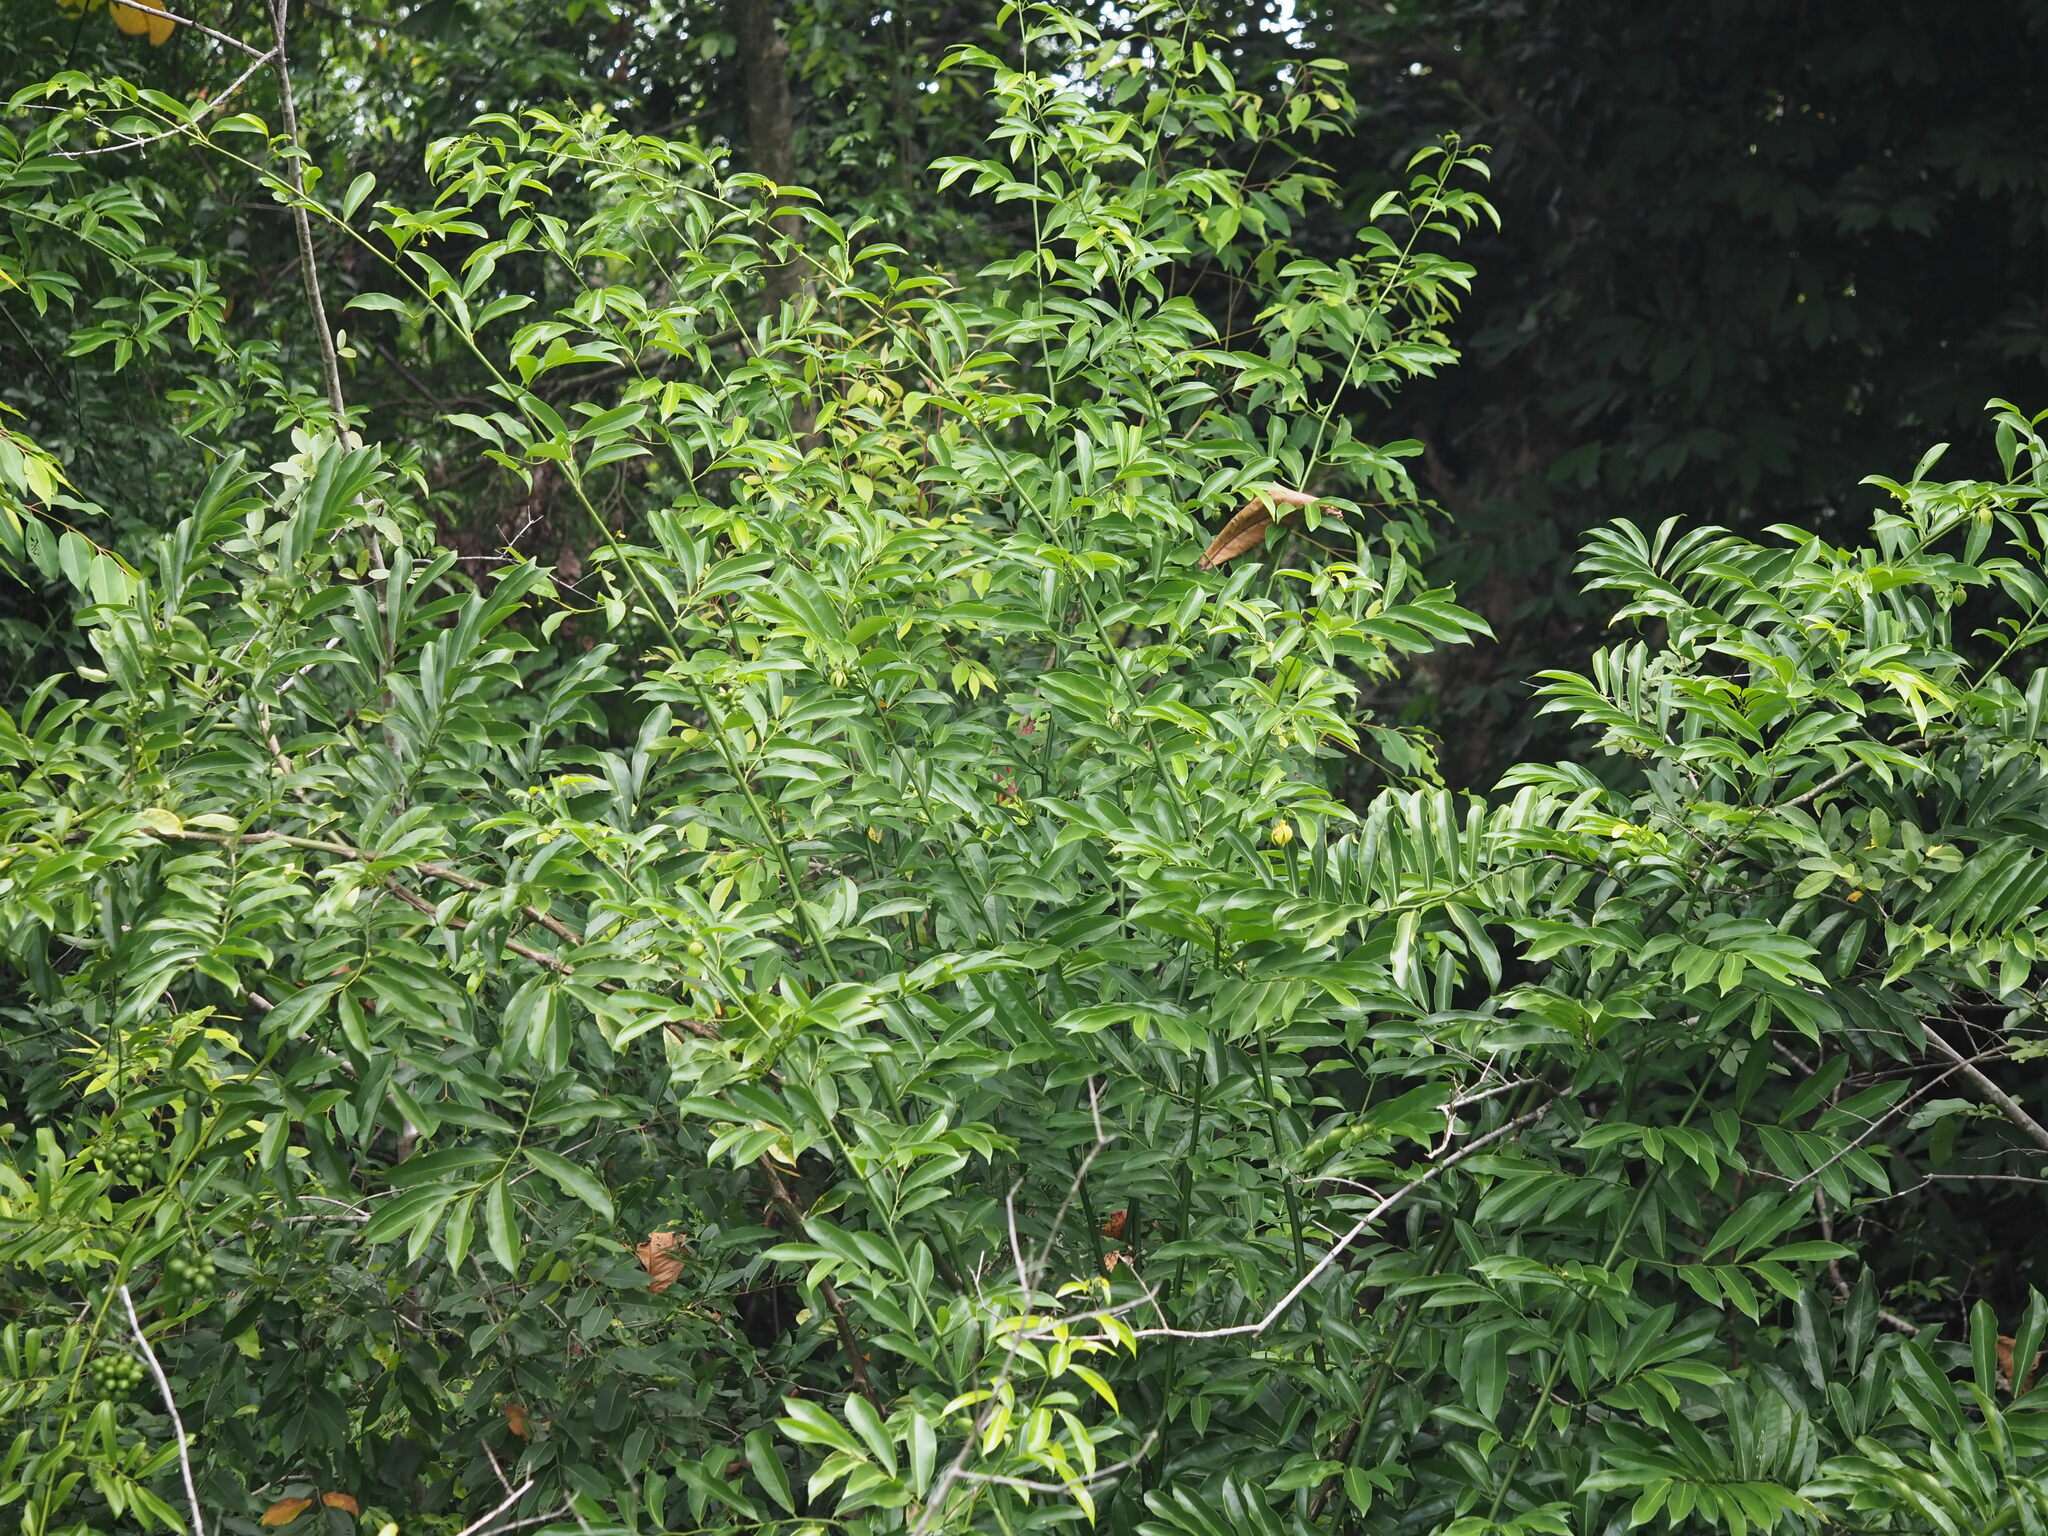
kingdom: Plantae
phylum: Tracheophyta
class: Magnoliopsida
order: Magnoliales
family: Annonaceae
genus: Artabotrys
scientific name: Artabotrys hexapetalus
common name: Climbing ilang-ilang
